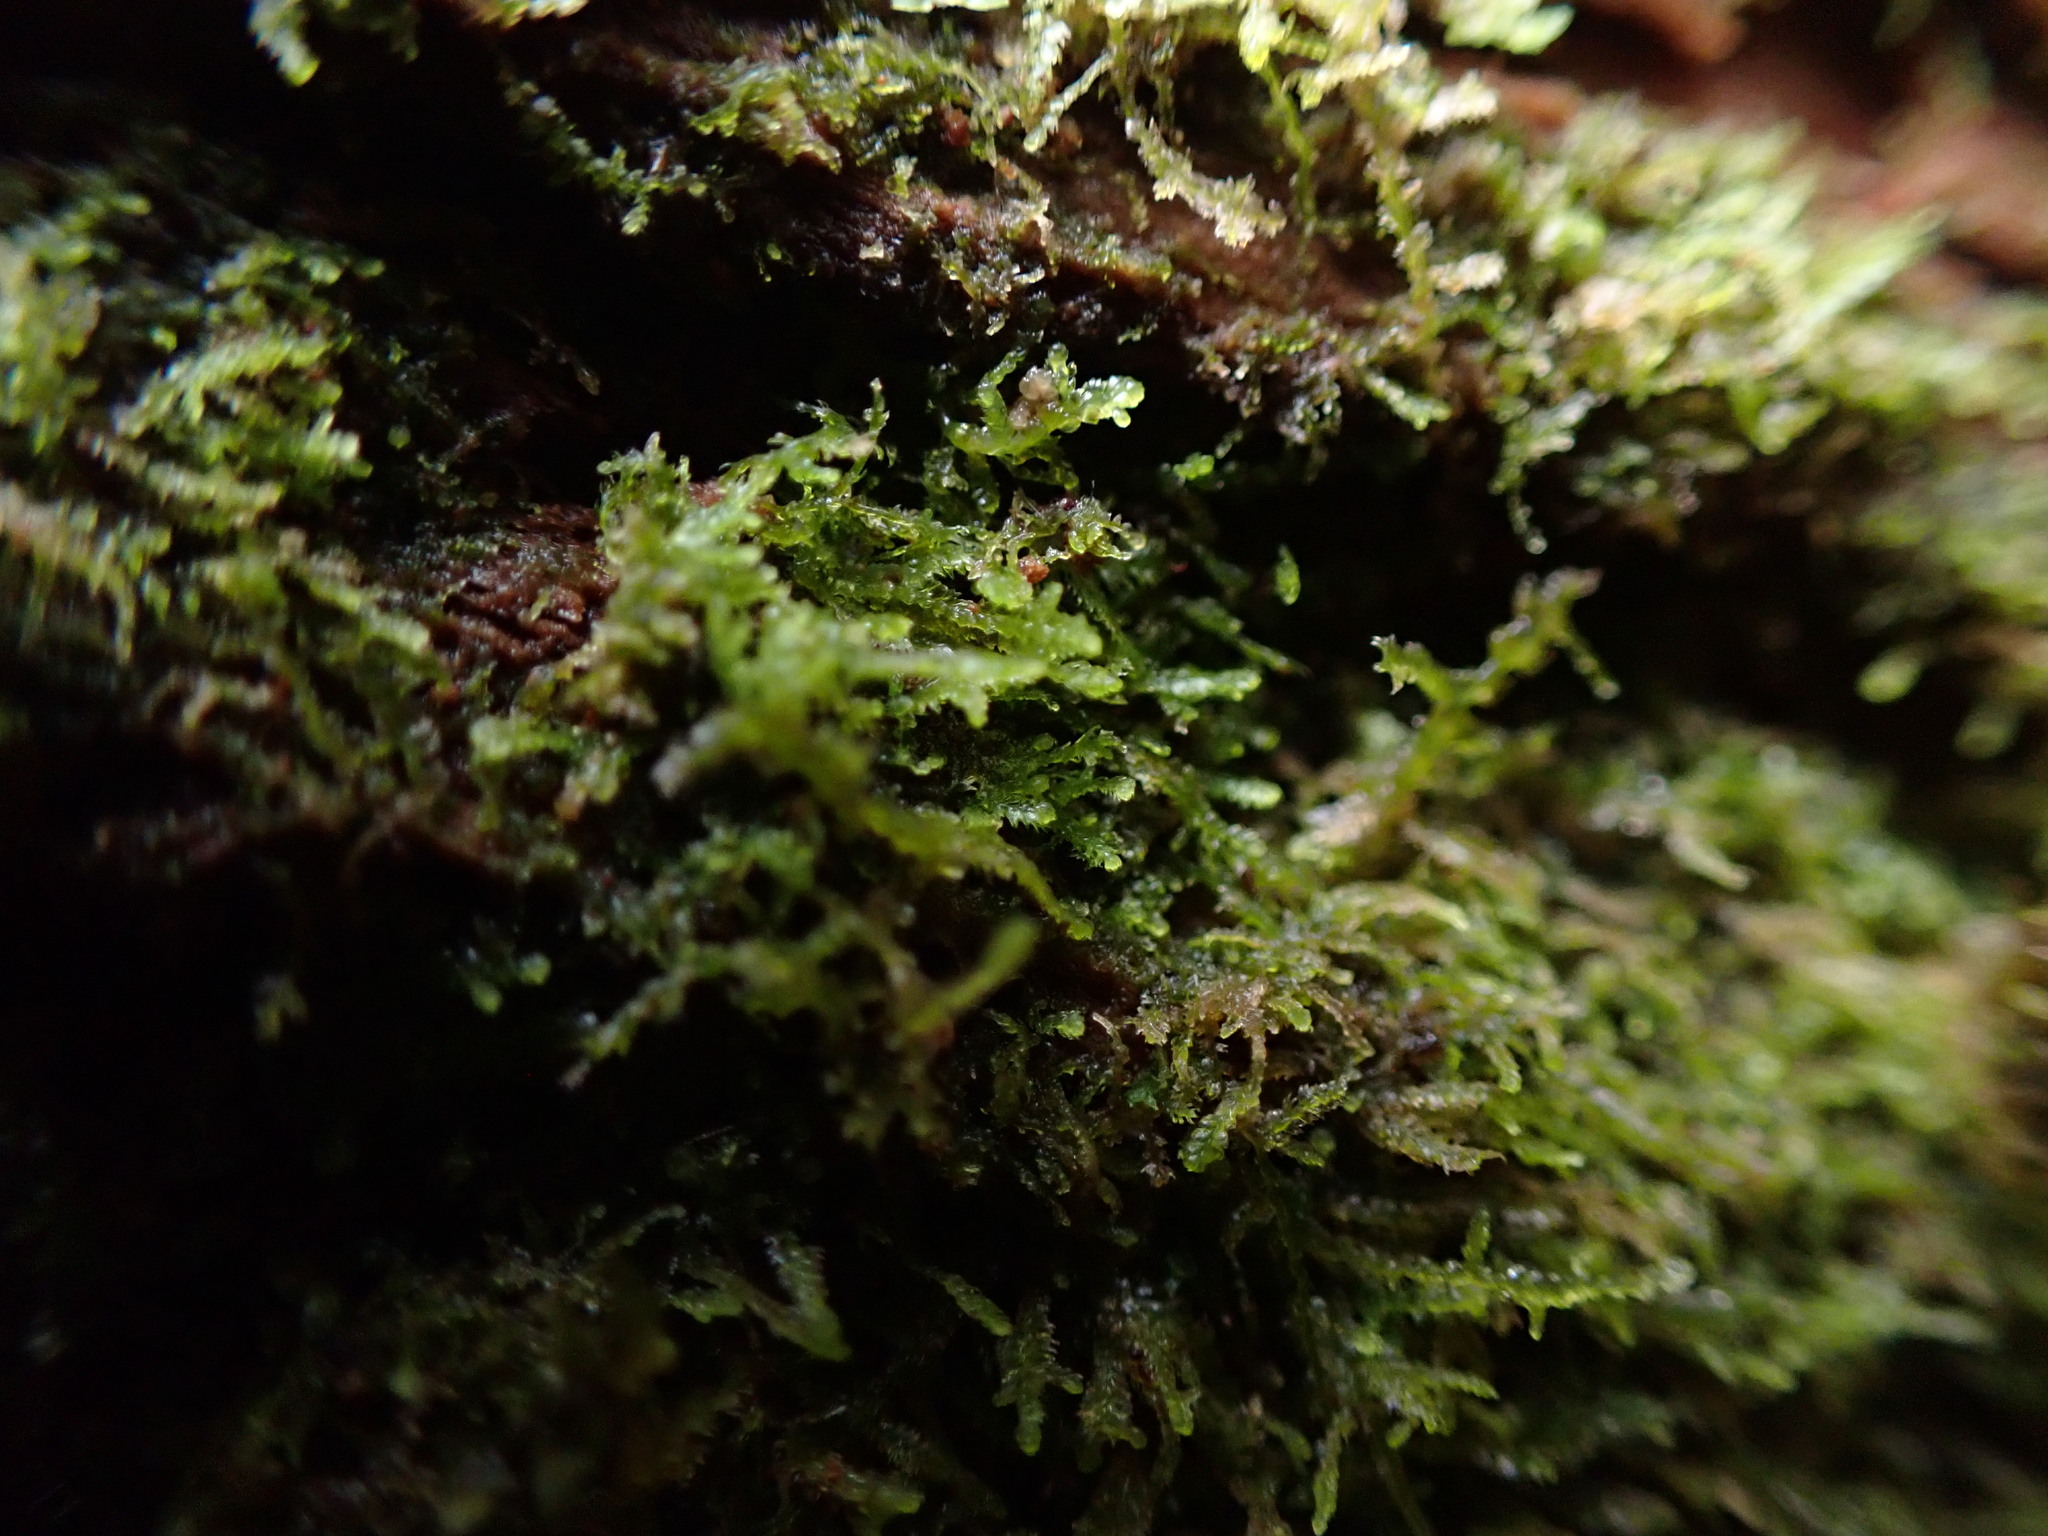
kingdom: Plantae
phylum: Marchantiophyta
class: Jungermanniopsida
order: Jungermanniales
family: Lepidoziaceae
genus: Lepidozia
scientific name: Lepidozia reptans
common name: Creeping fingerwort
